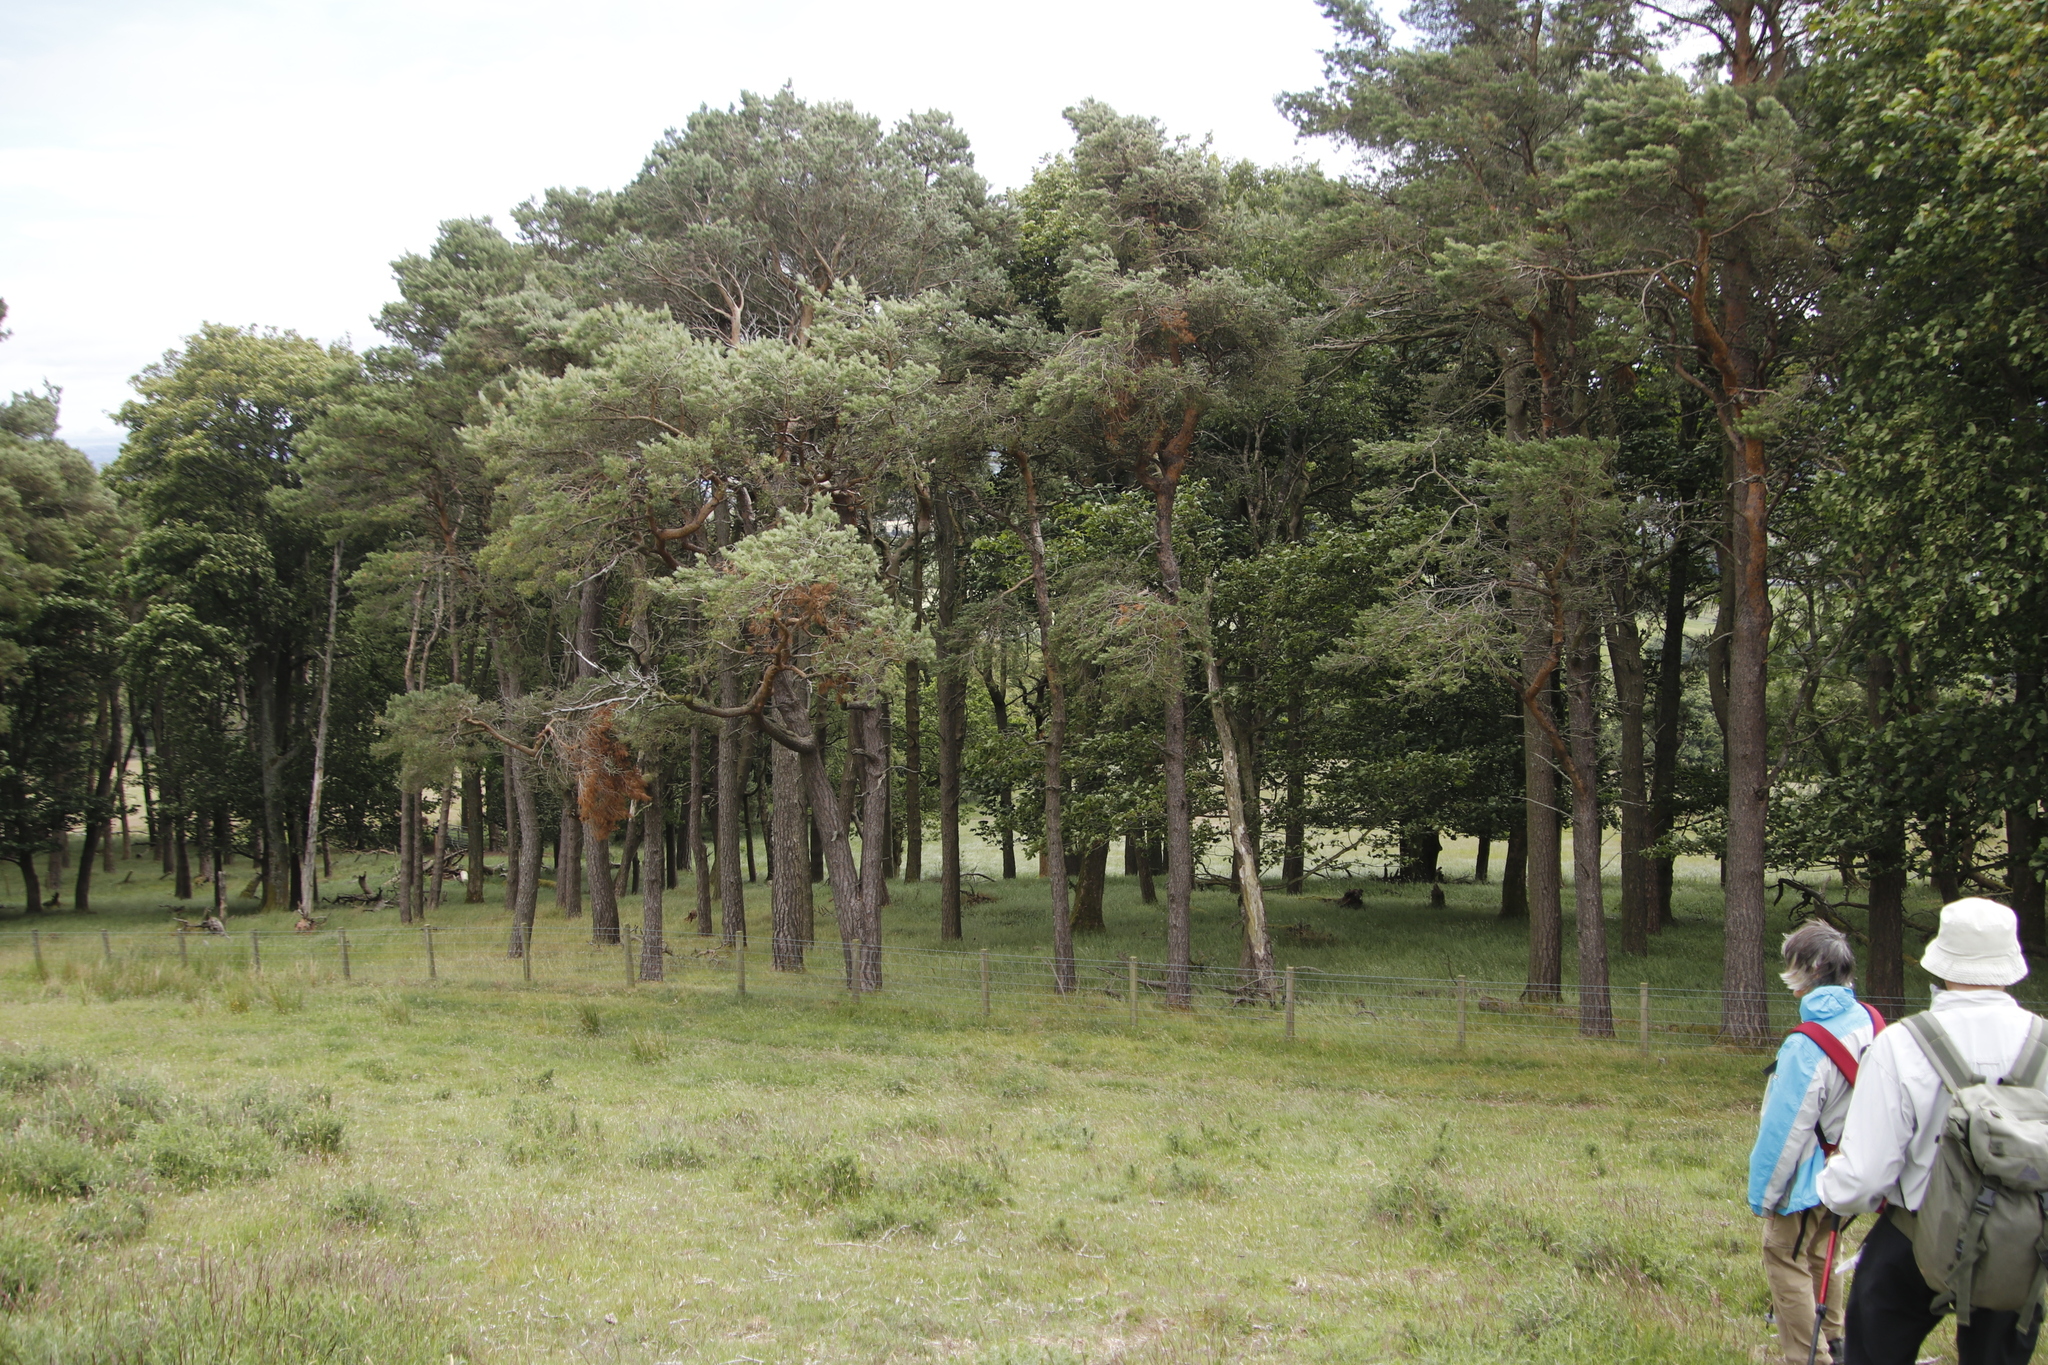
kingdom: Plantae
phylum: Tracheophyta
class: Pinopsida
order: Pinales
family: Pinaceae
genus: Pinus
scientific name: Pinus sylvestris
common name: Scots pine
